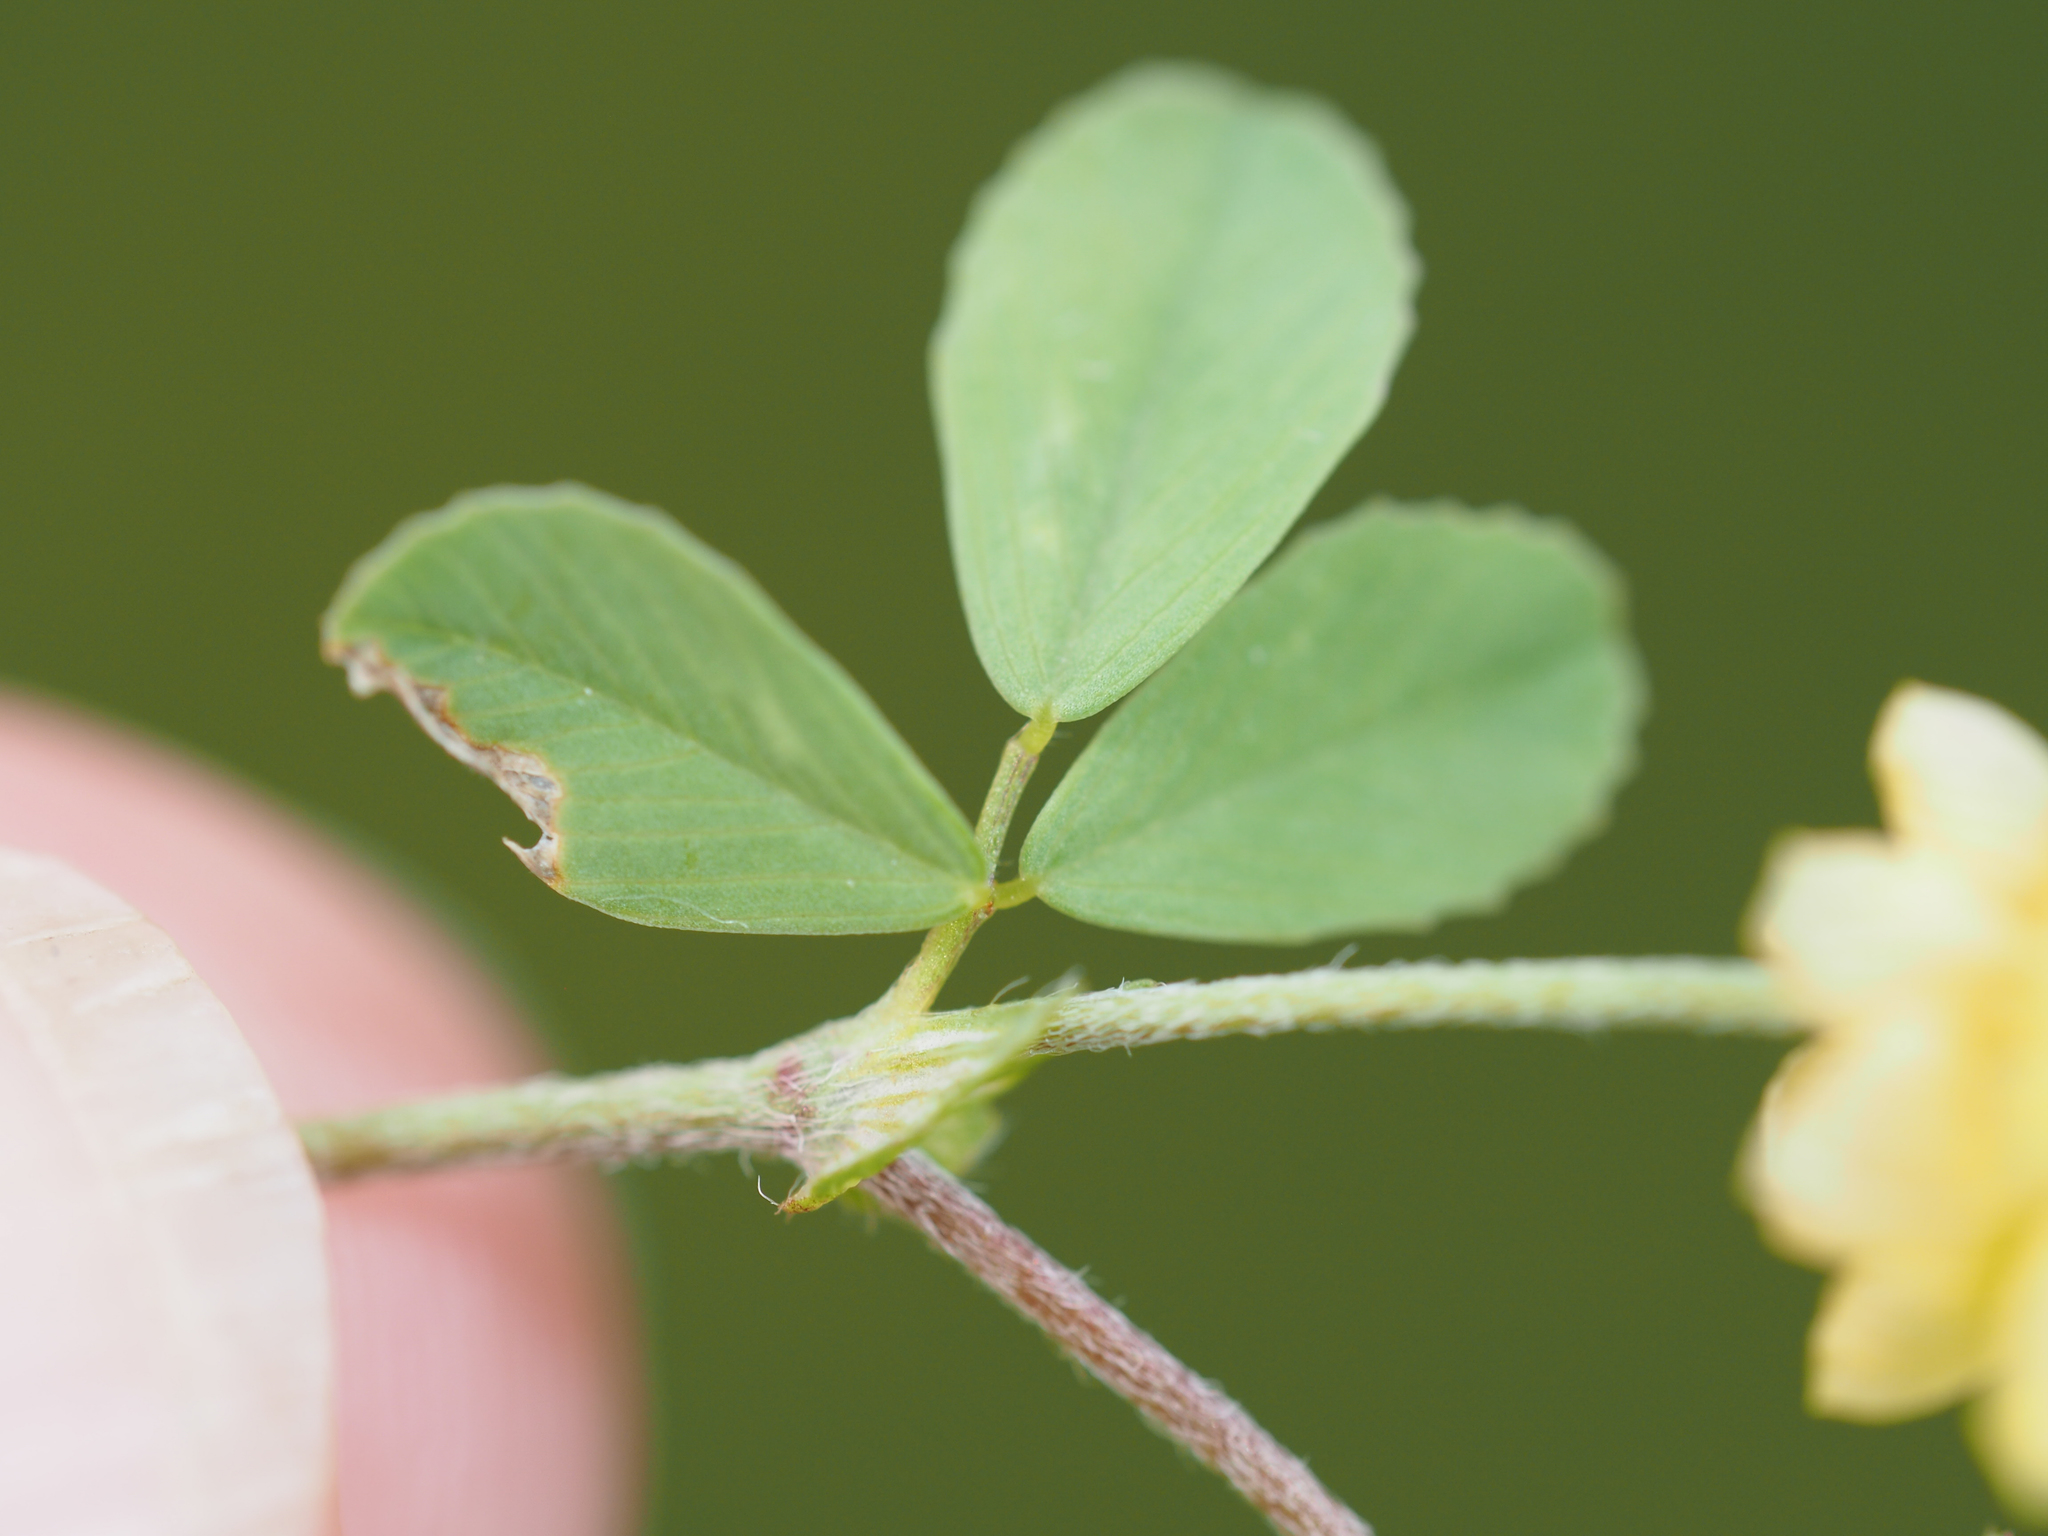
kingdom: Plantae
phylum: Tracheophyta
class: Magnoliopsida
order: Fabales
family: Fabaceae
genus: Trifolium
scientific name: Trifolium campestre
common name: Field clover
